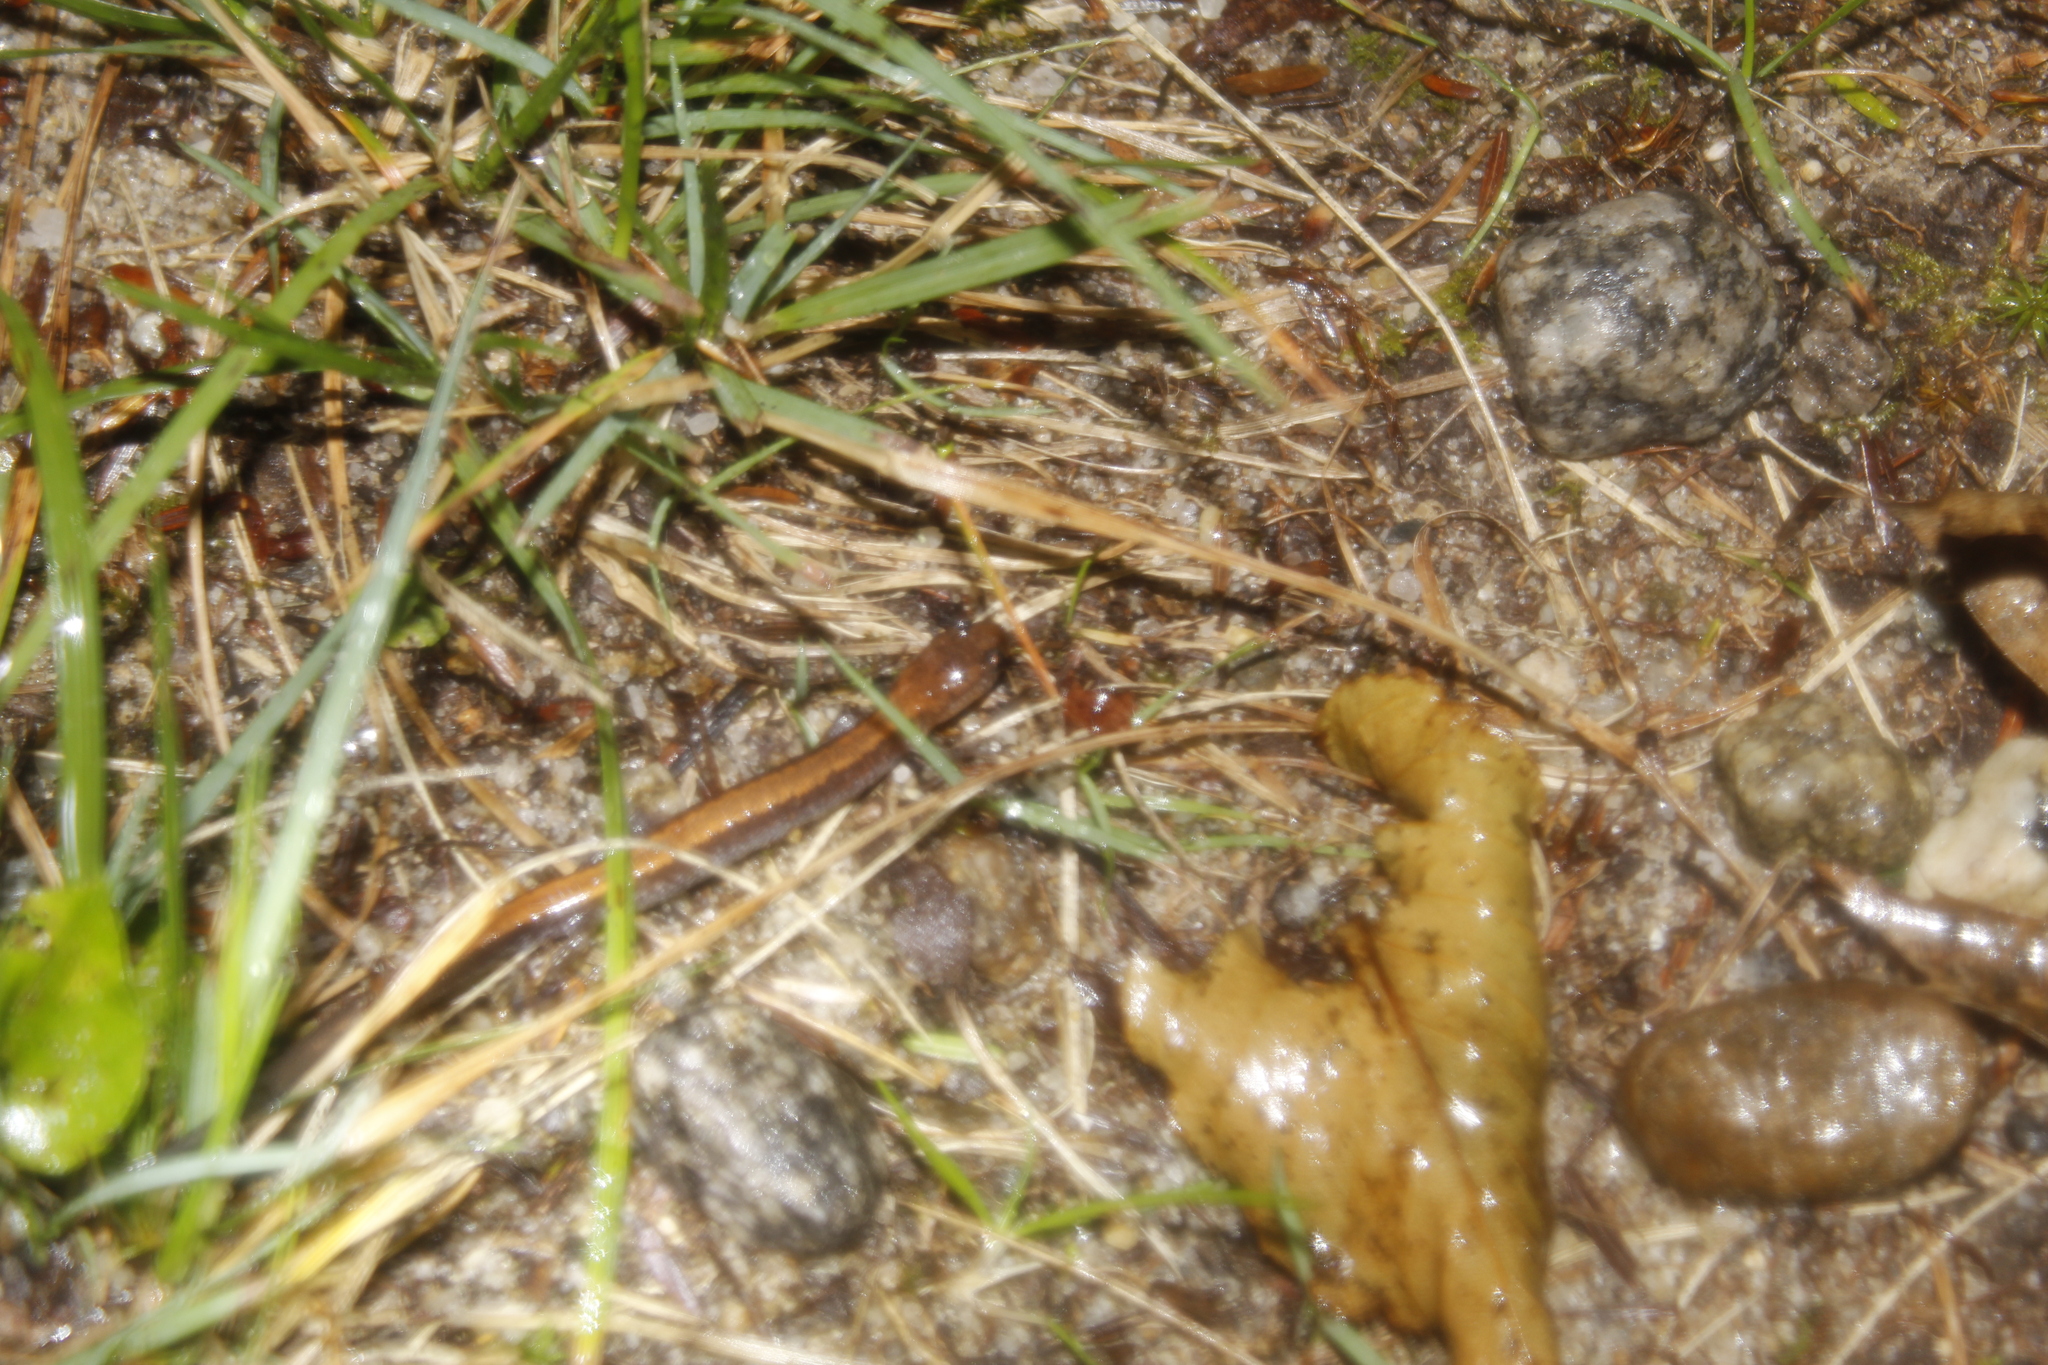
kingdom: Animalia
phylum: Chordata
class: Amphibia
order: Caudata
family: Plethodontidae
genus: Plethodon
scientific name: Plethodon cinereus
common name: Redback salamander
